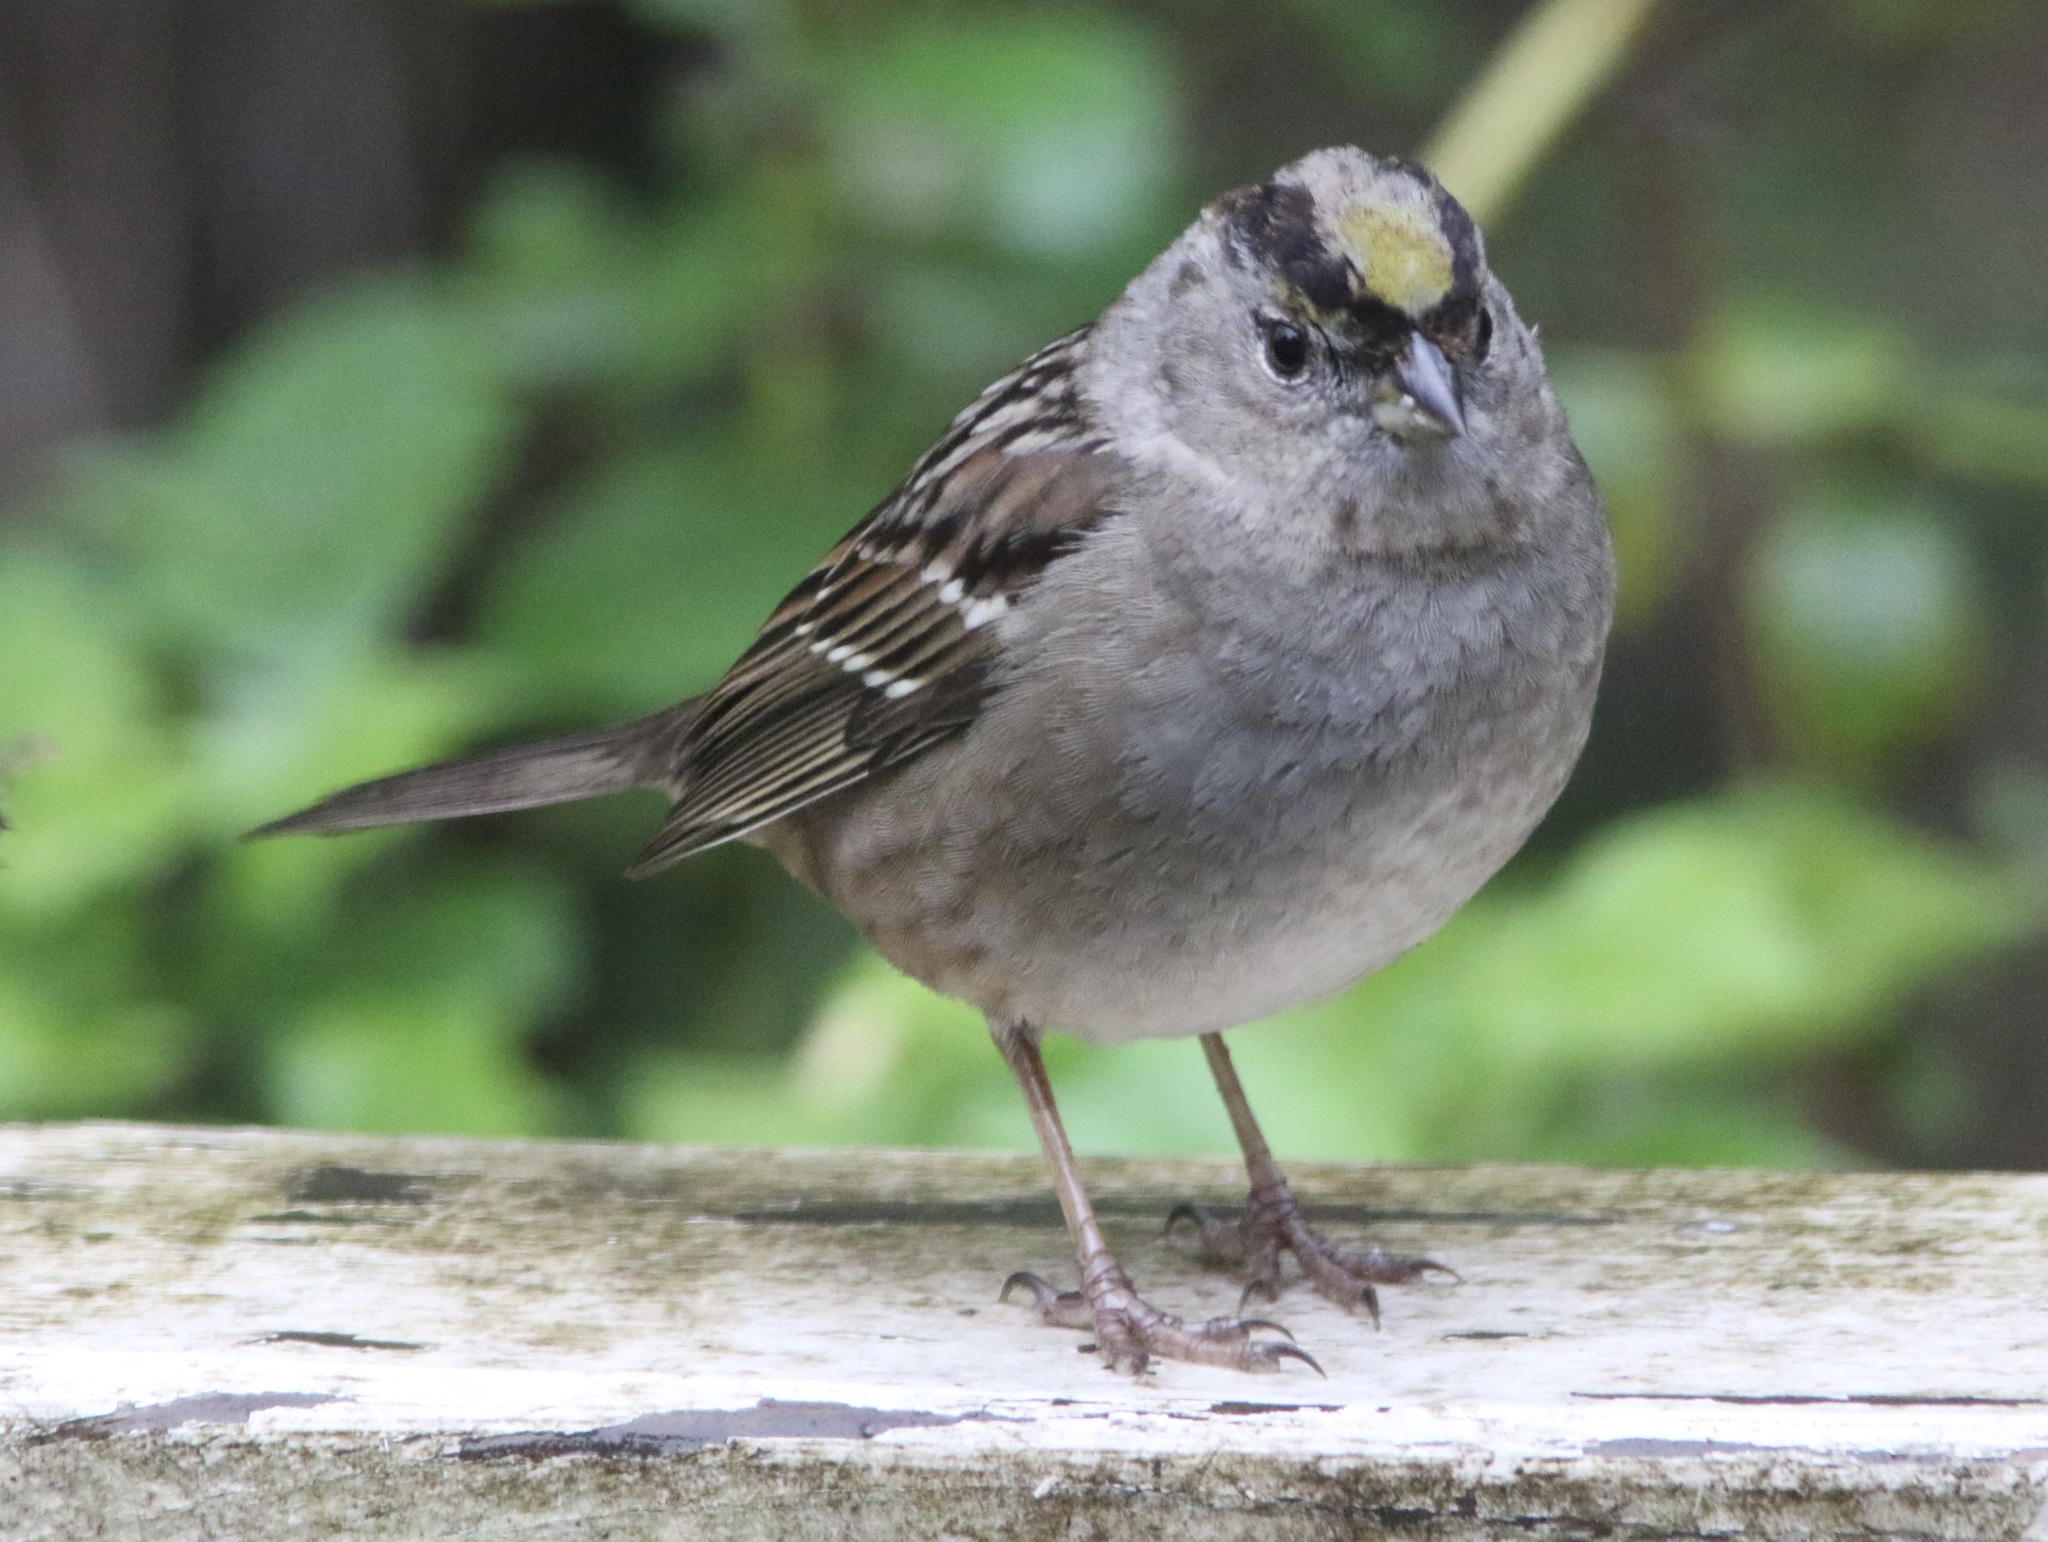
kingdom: Animalia
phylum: Chordata
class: Aves
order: Passeriformes
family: Passerellidae
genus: Zonotrichia
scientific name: Zonotrichia atricapilla
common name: Golden-crowned sparrow
